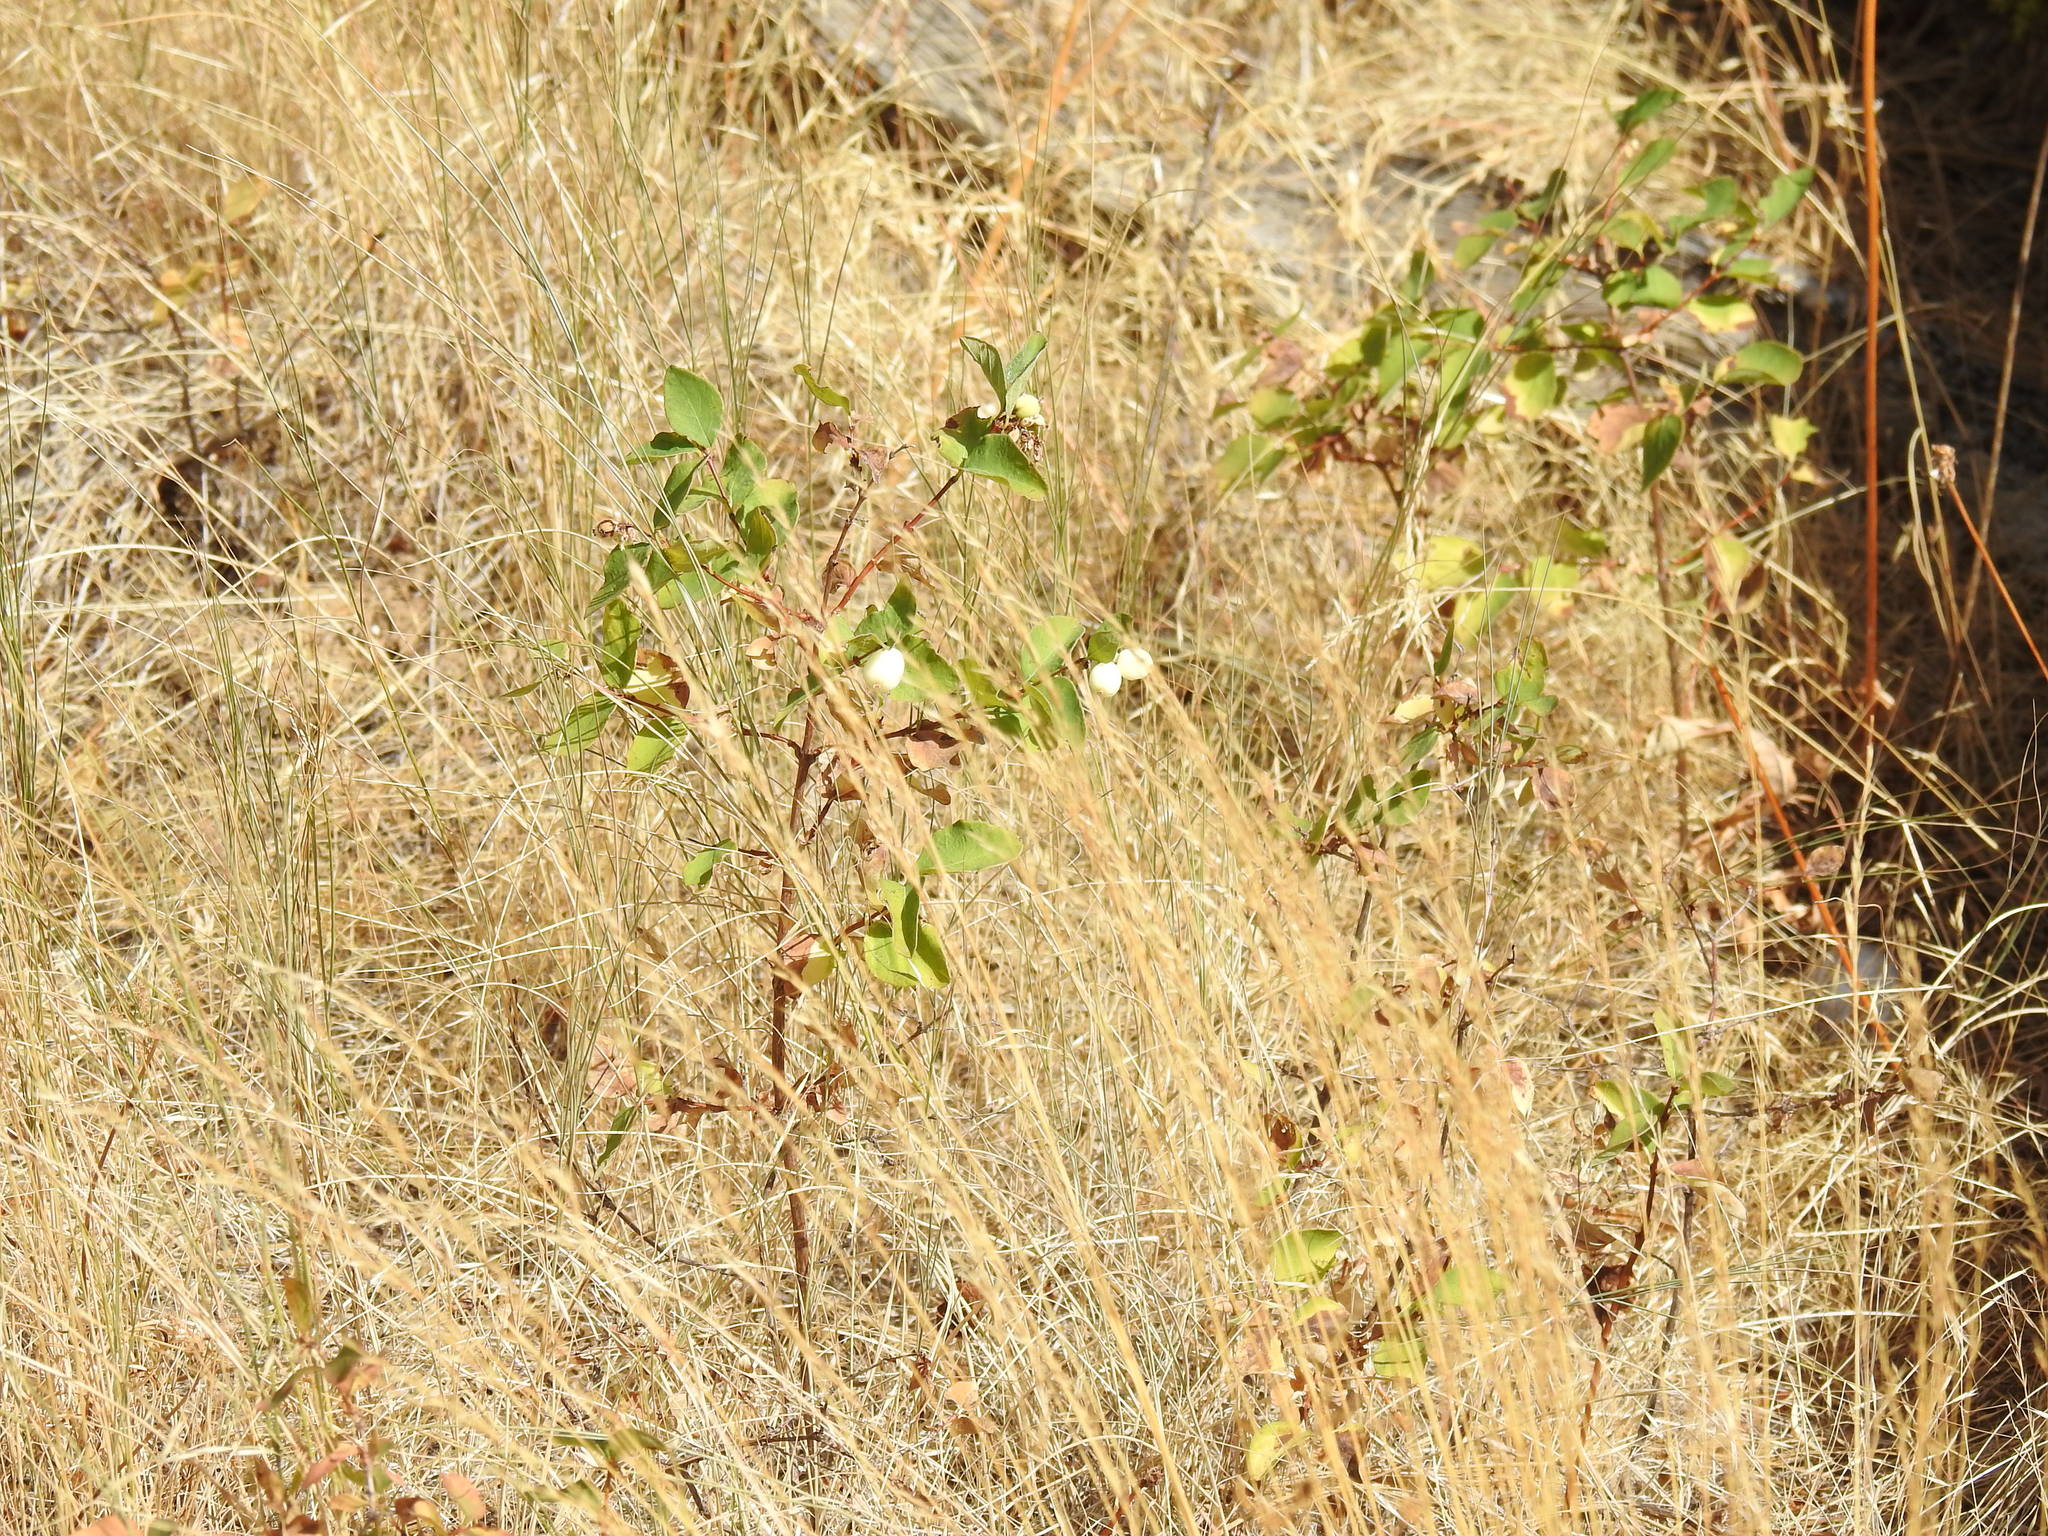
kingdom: Plantae
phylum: Tracheophyta
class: Magnoliopsida
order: Dipsacales
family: Caprifoliaceae
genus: Symphoricarpos
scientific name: Symphoricarpos albus
